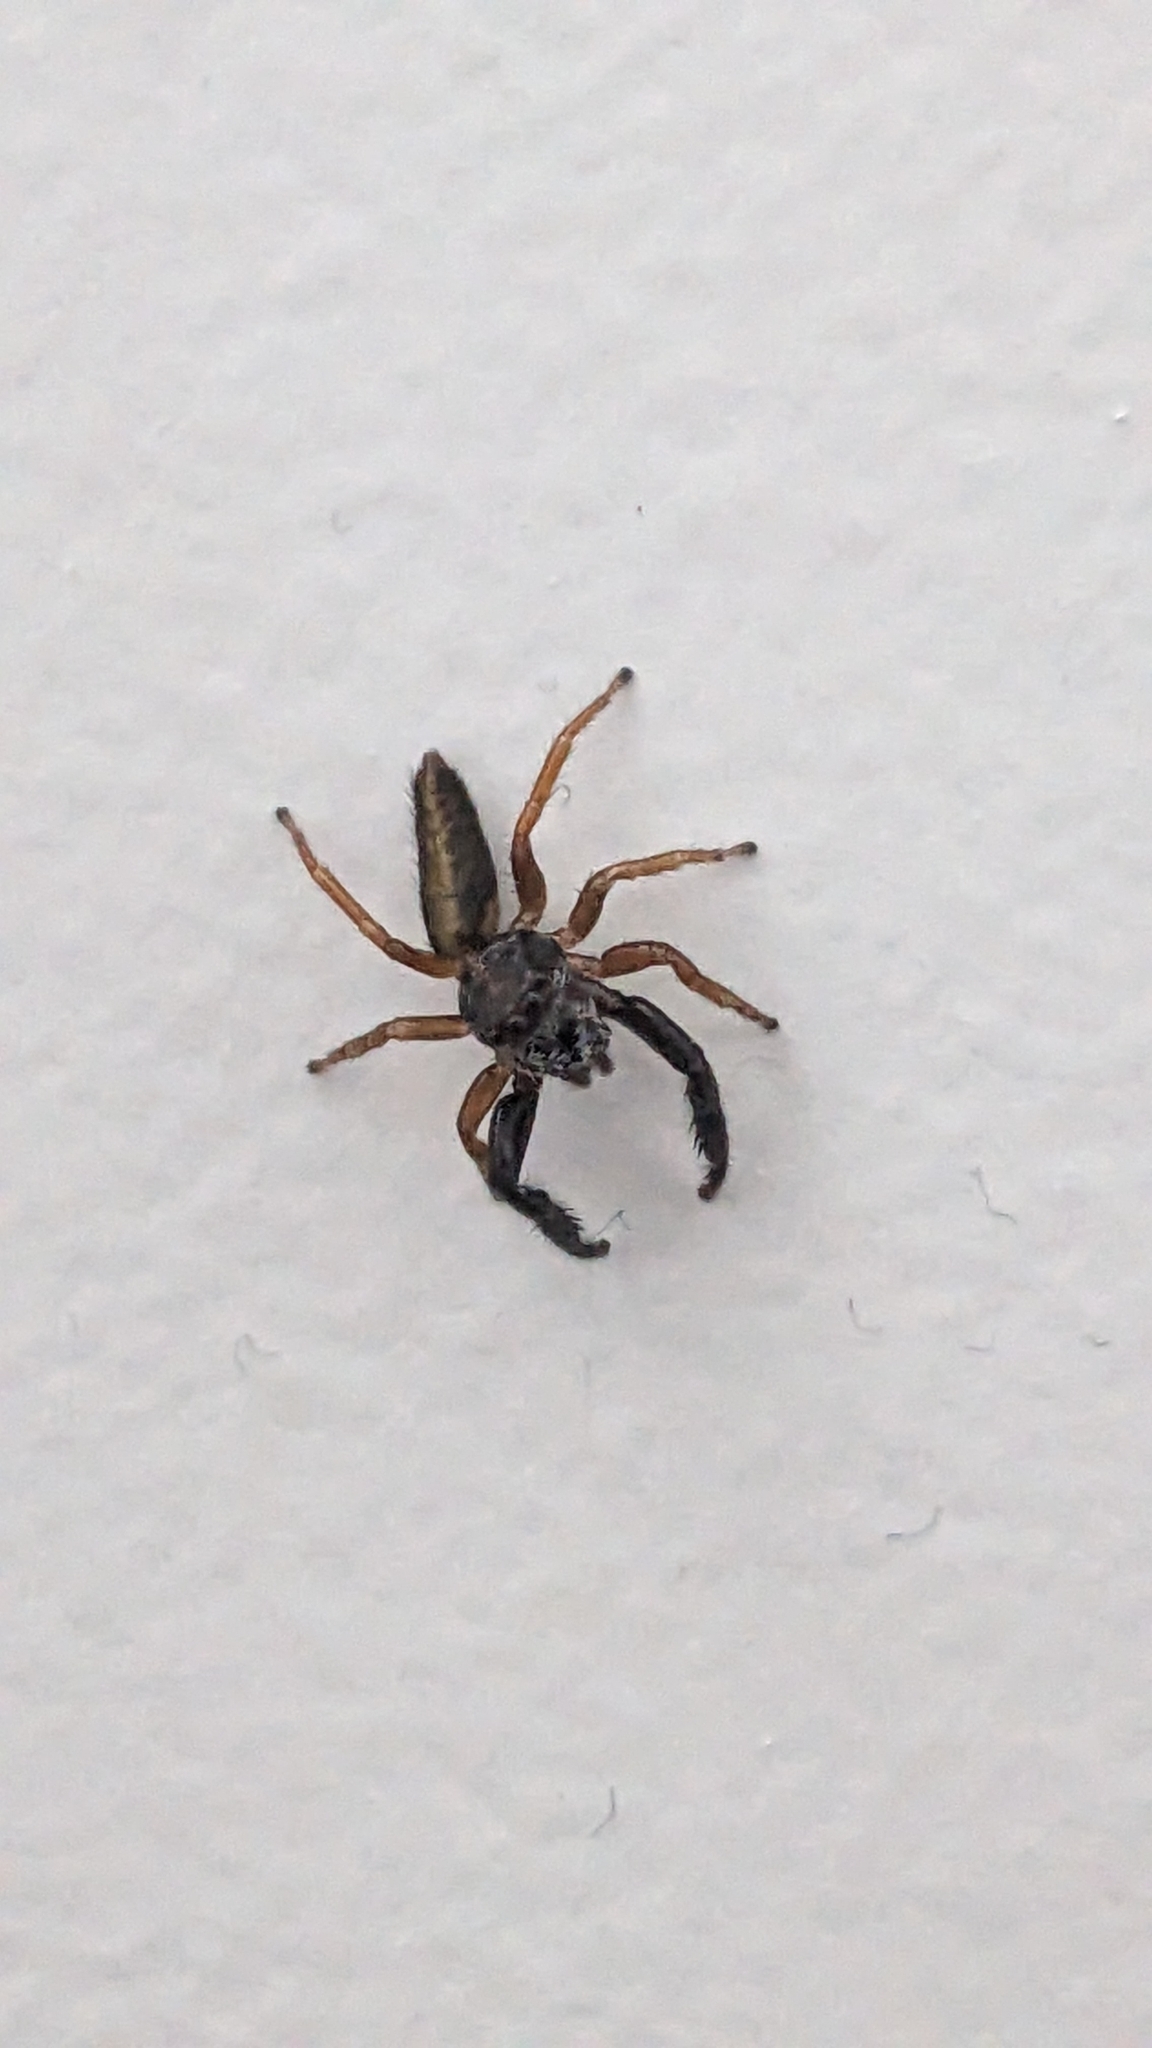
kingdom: Animalia
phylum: Arthropoda
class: Arachnida
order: Araneae
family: Salticidae
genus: Trite
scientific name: Trite planiceps
